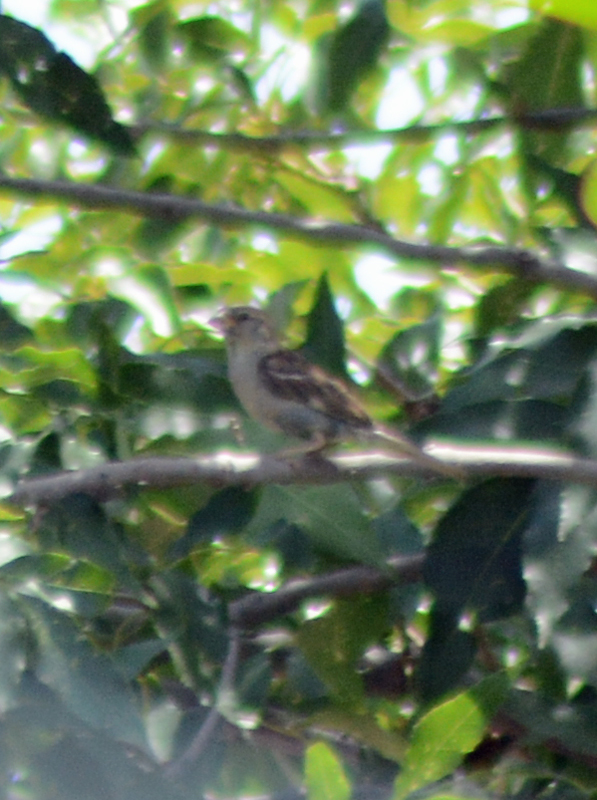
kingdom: Animalia
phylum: Chordata
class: Aves
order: Passeriformes
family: Passeridae
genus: Passer
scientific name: Passer domesticus
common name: House sparrow
